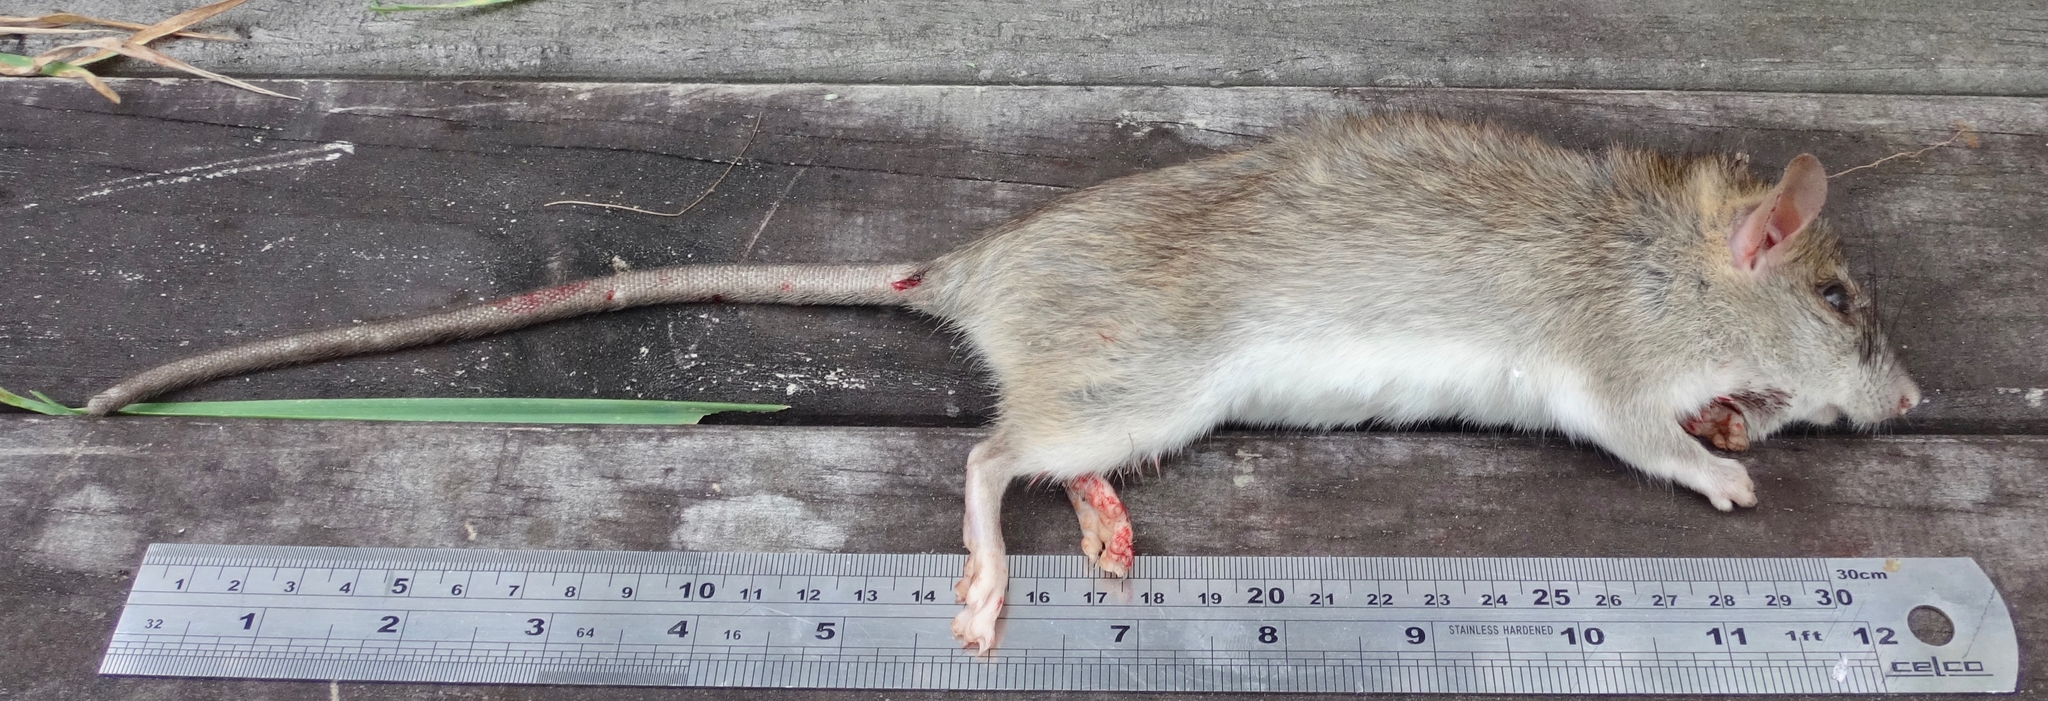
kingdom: Animalia
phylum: Chordata
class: Mammalia
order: Rodentia
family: Muridae
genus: Rattus
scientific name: Rattus rattus
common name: Black rat
